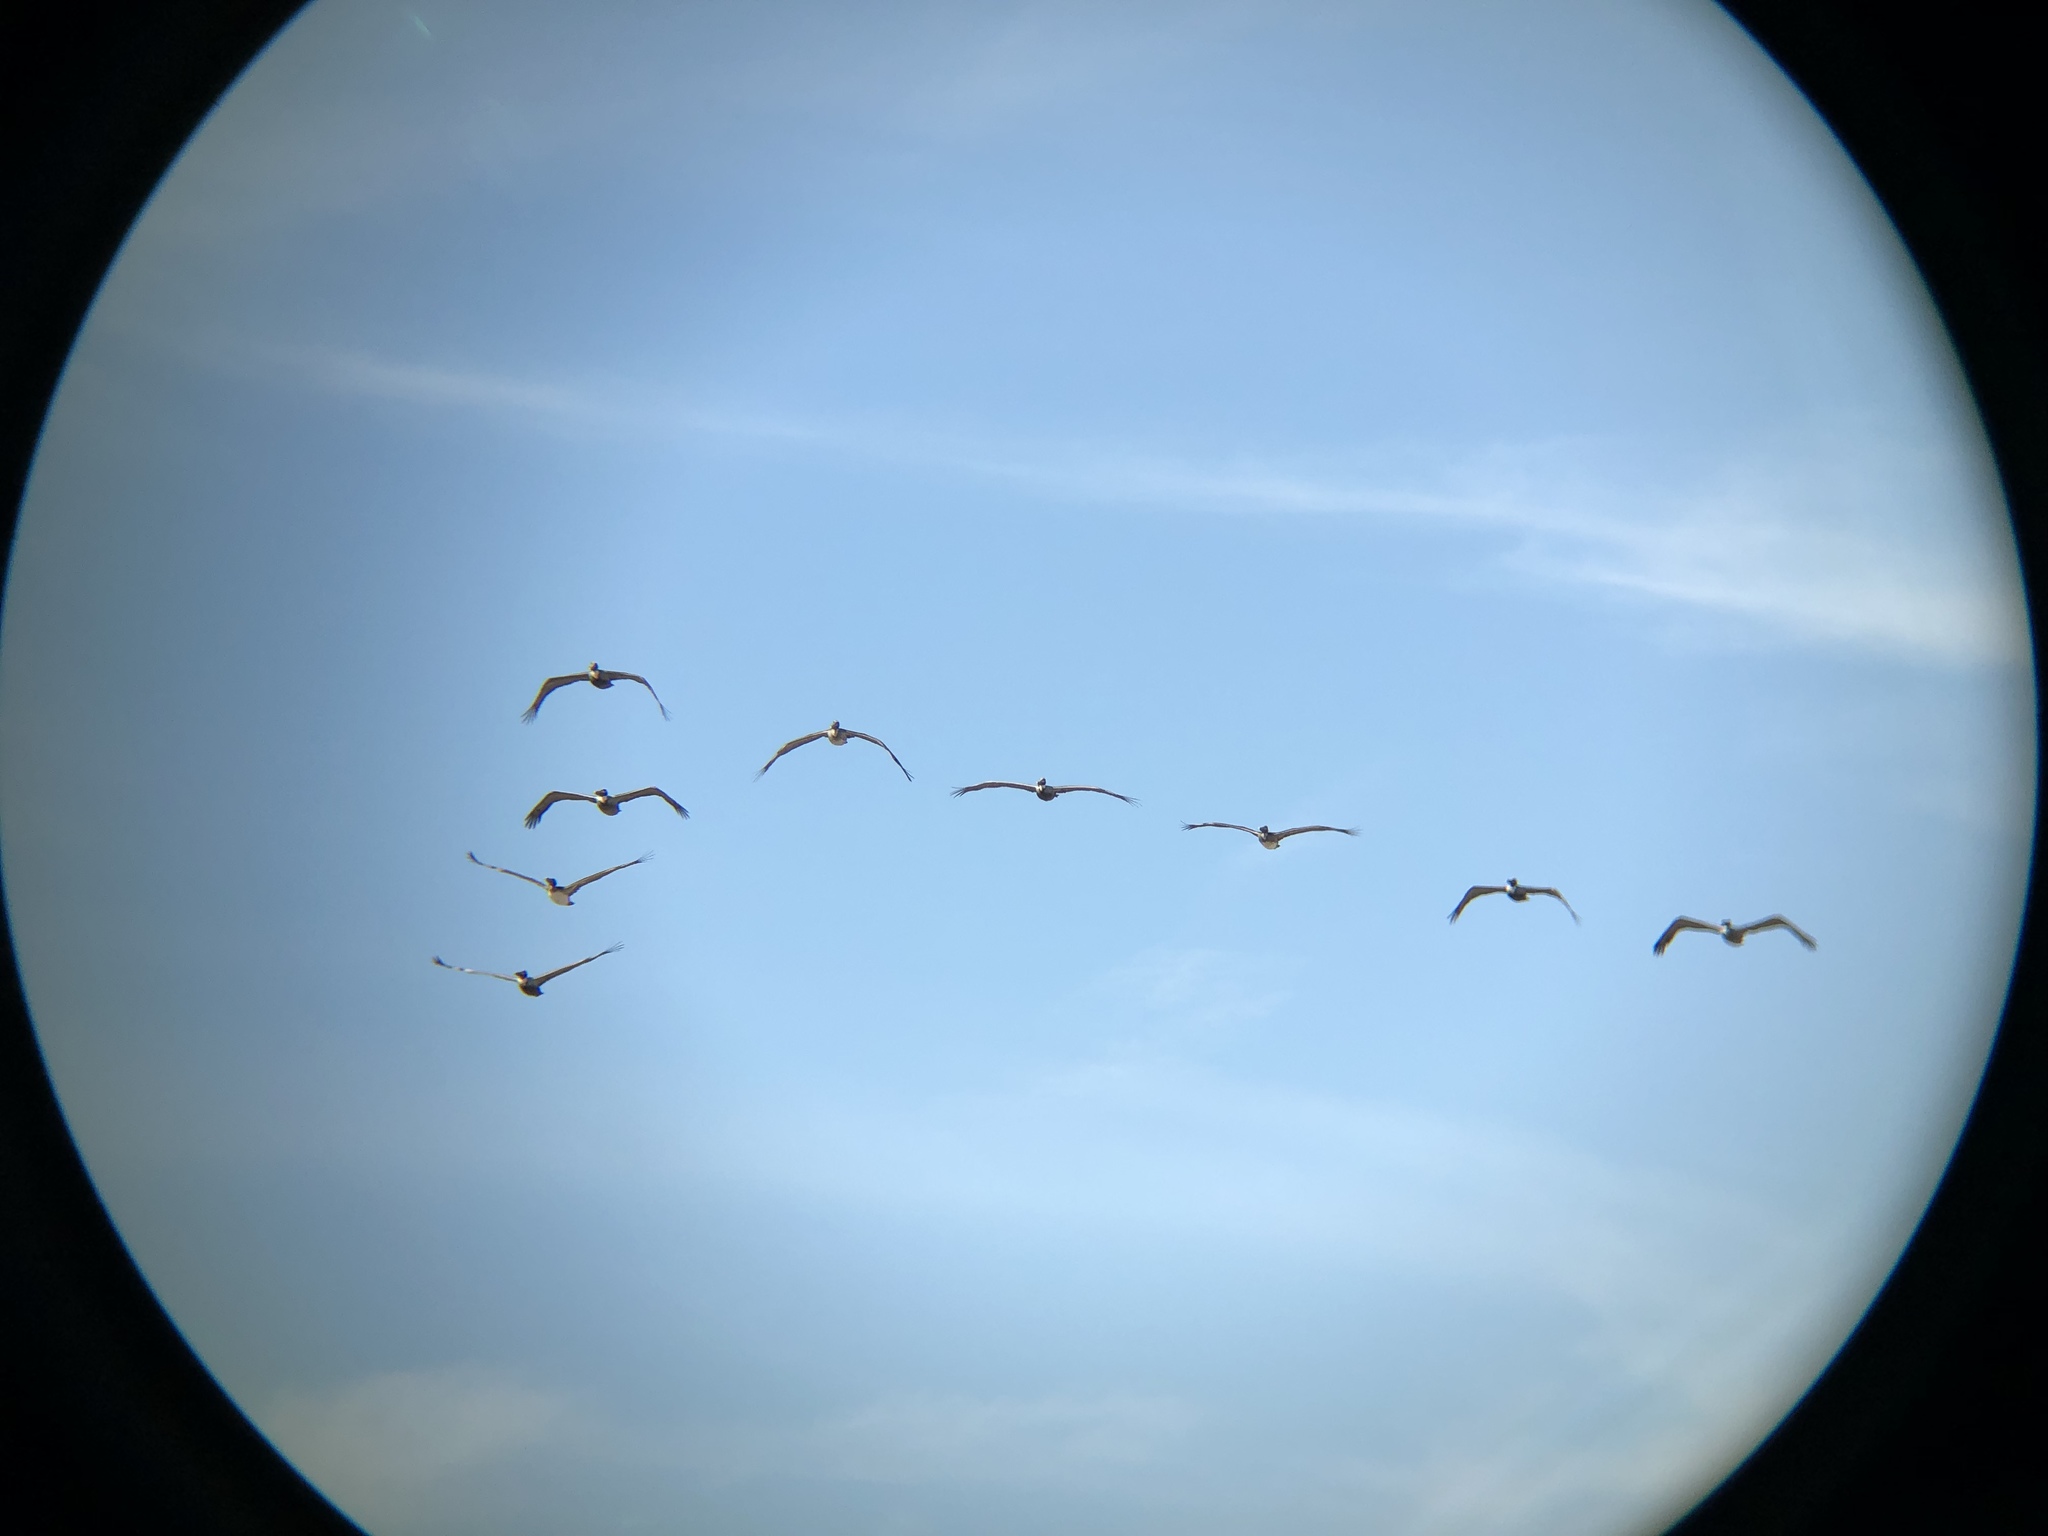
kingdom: Animalia
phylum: Chordata
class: Aves
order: Pelecaniformes
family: Pelecanidae
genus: Pelecanus
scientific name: Pelecanus occidentalis
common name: Brown pelican
